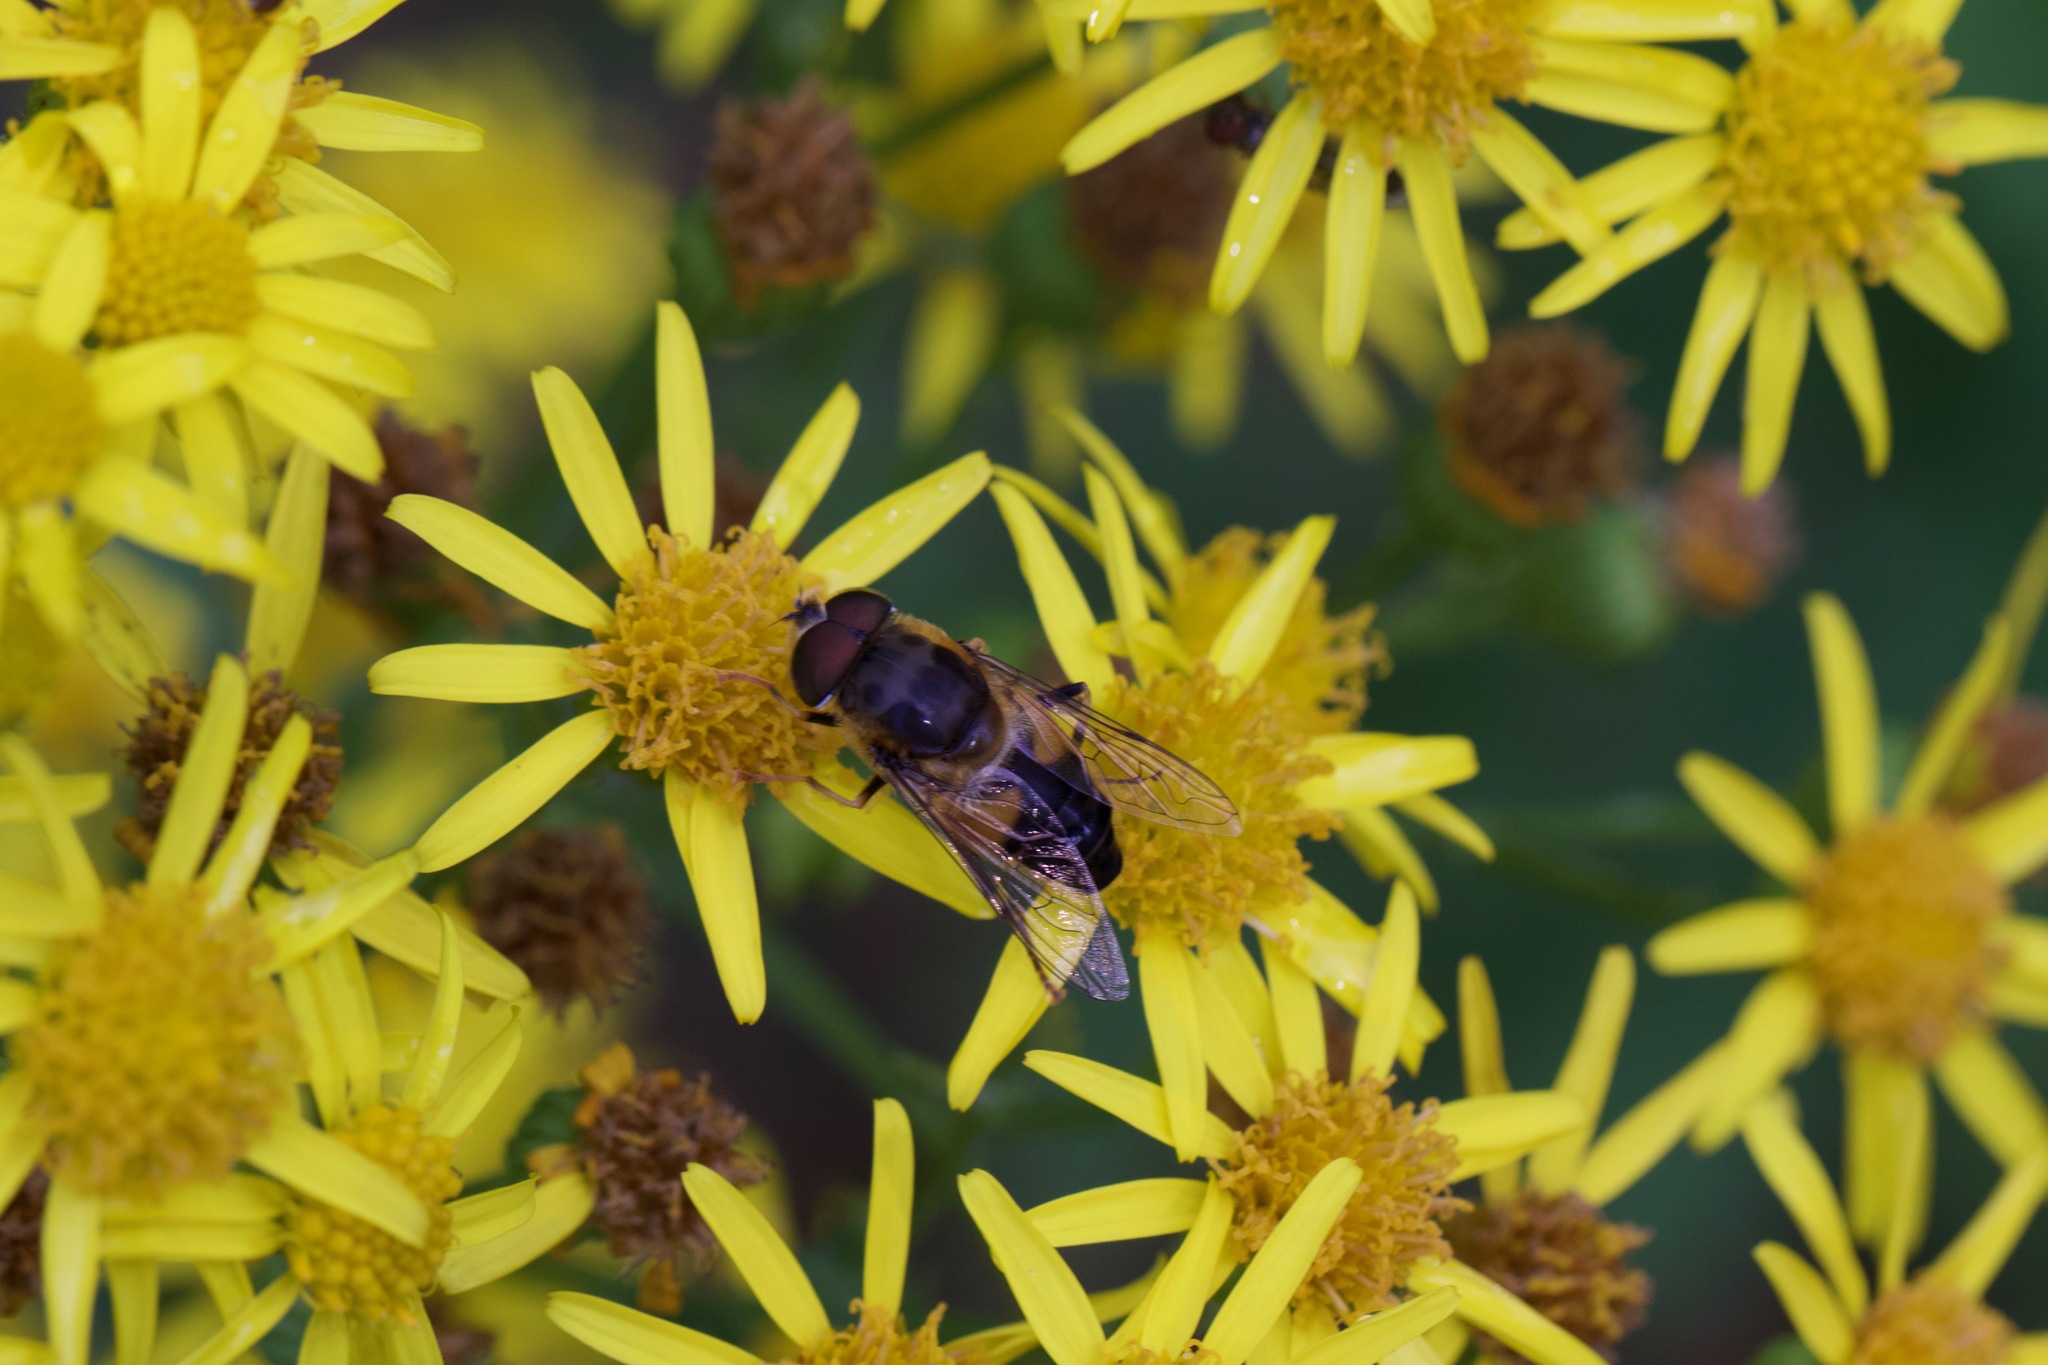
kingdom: Animalia
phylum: Arthropoda
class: Insecta
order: Diptera
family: Syrphidae
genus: Eristalis
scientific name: Eristalis pertinax
